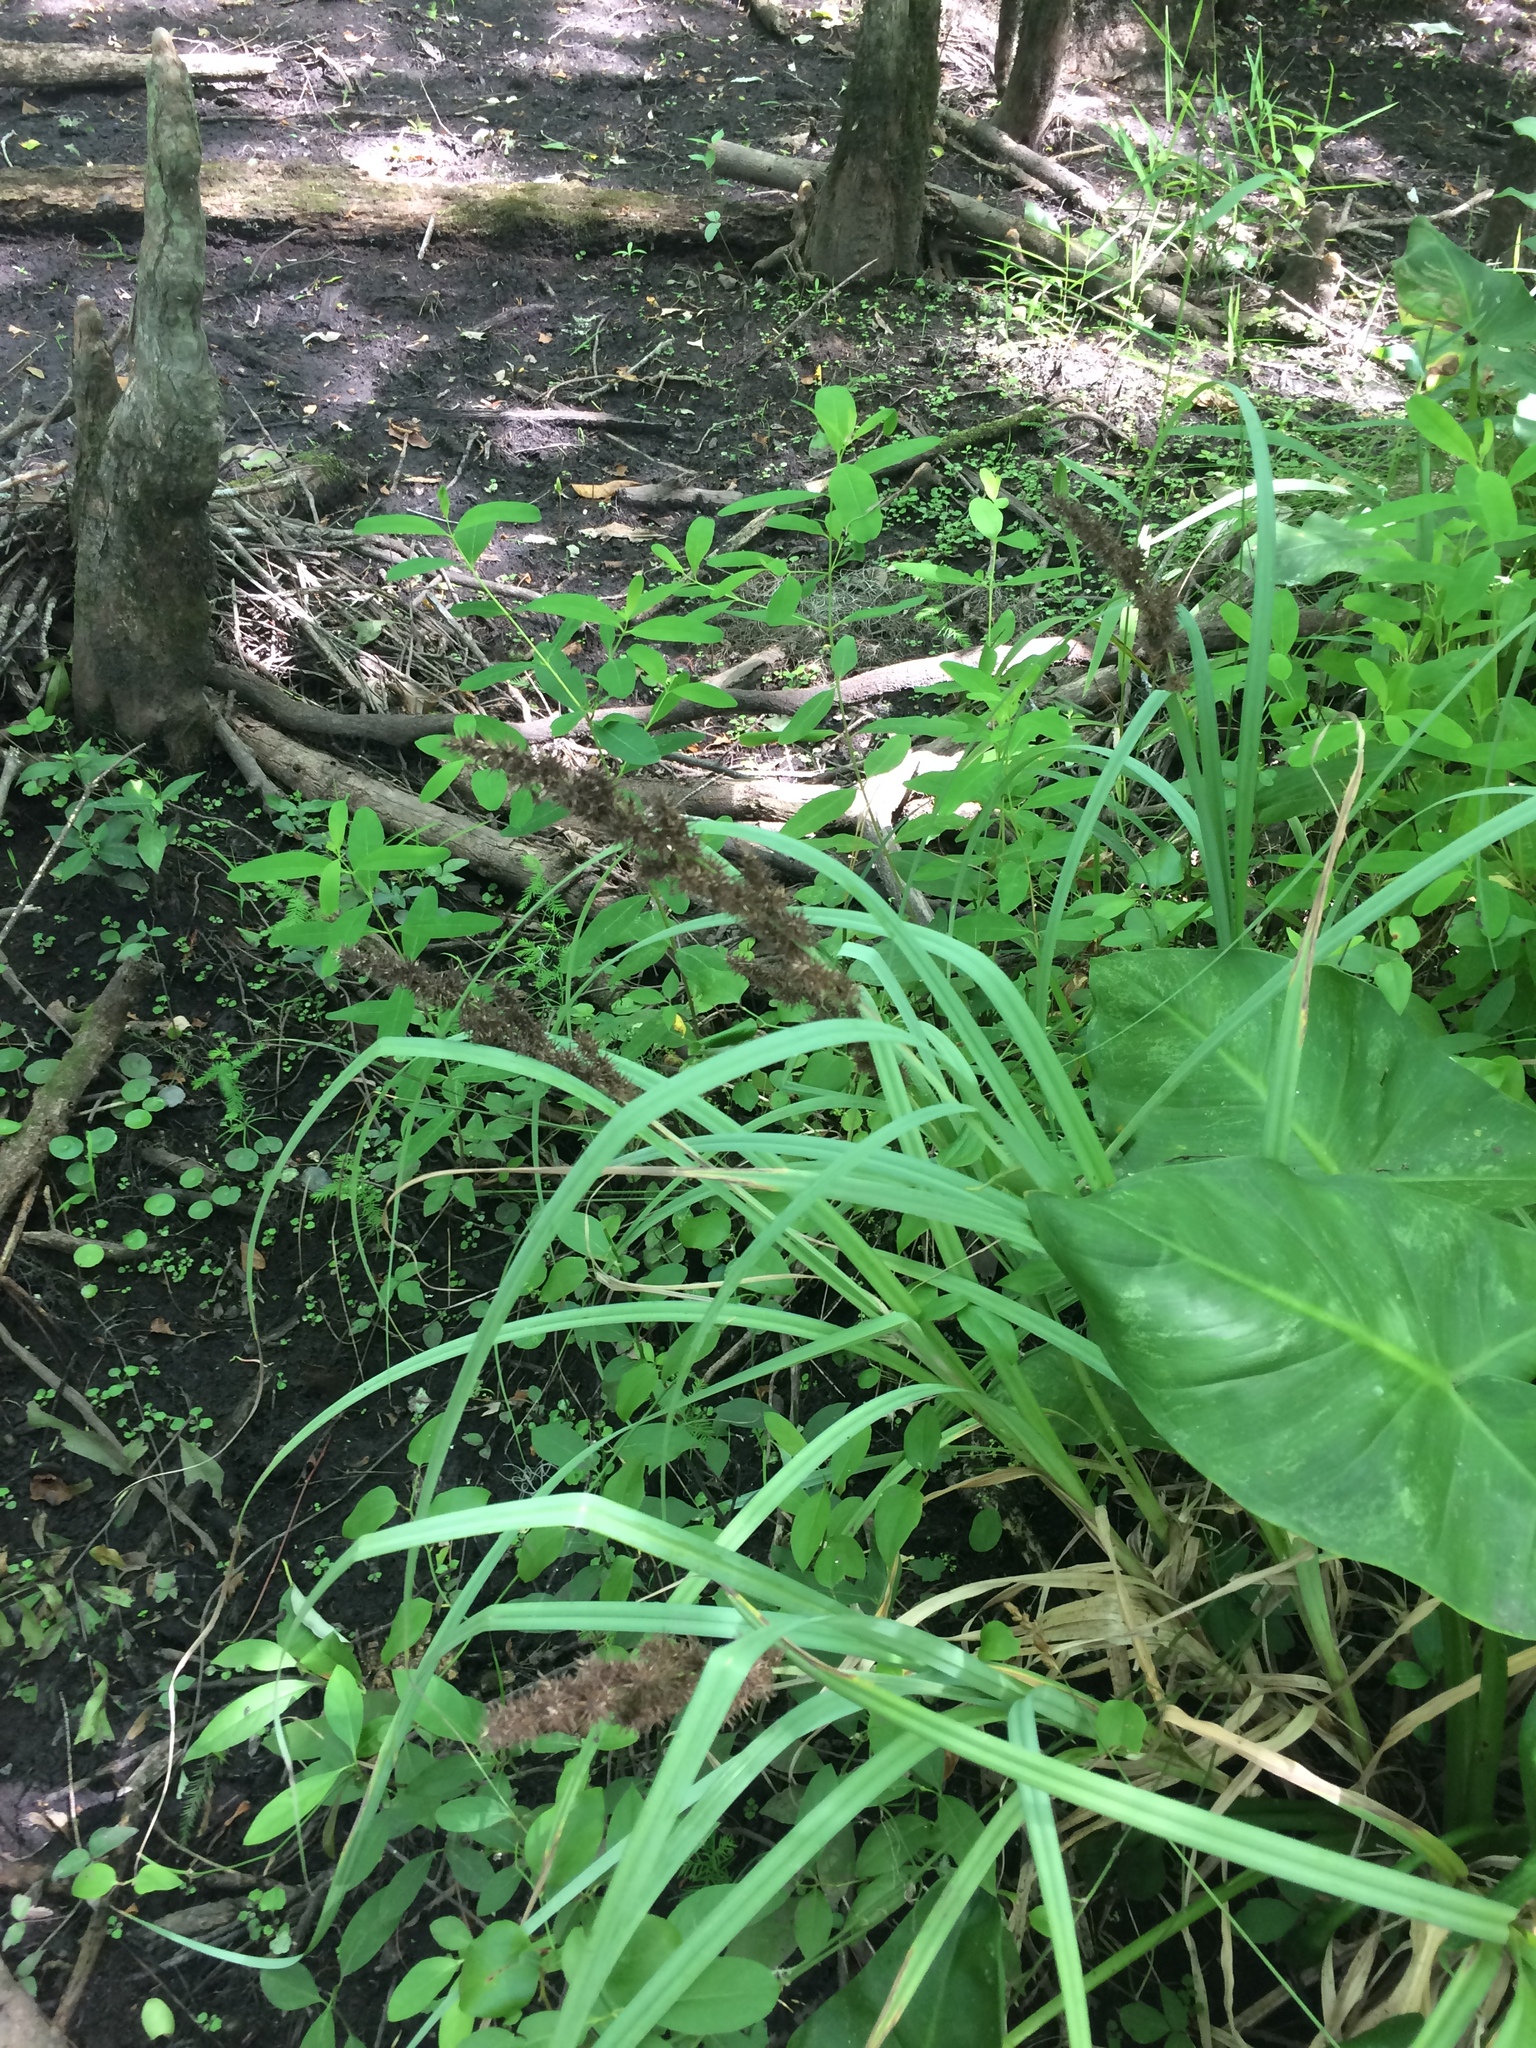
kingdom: Plantae
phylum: Tracheophyta
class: Liliopsida
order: Poales
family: Cyperaceae
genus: Carex
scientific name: Carex crus-corvi
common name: Crow-spur sedge
